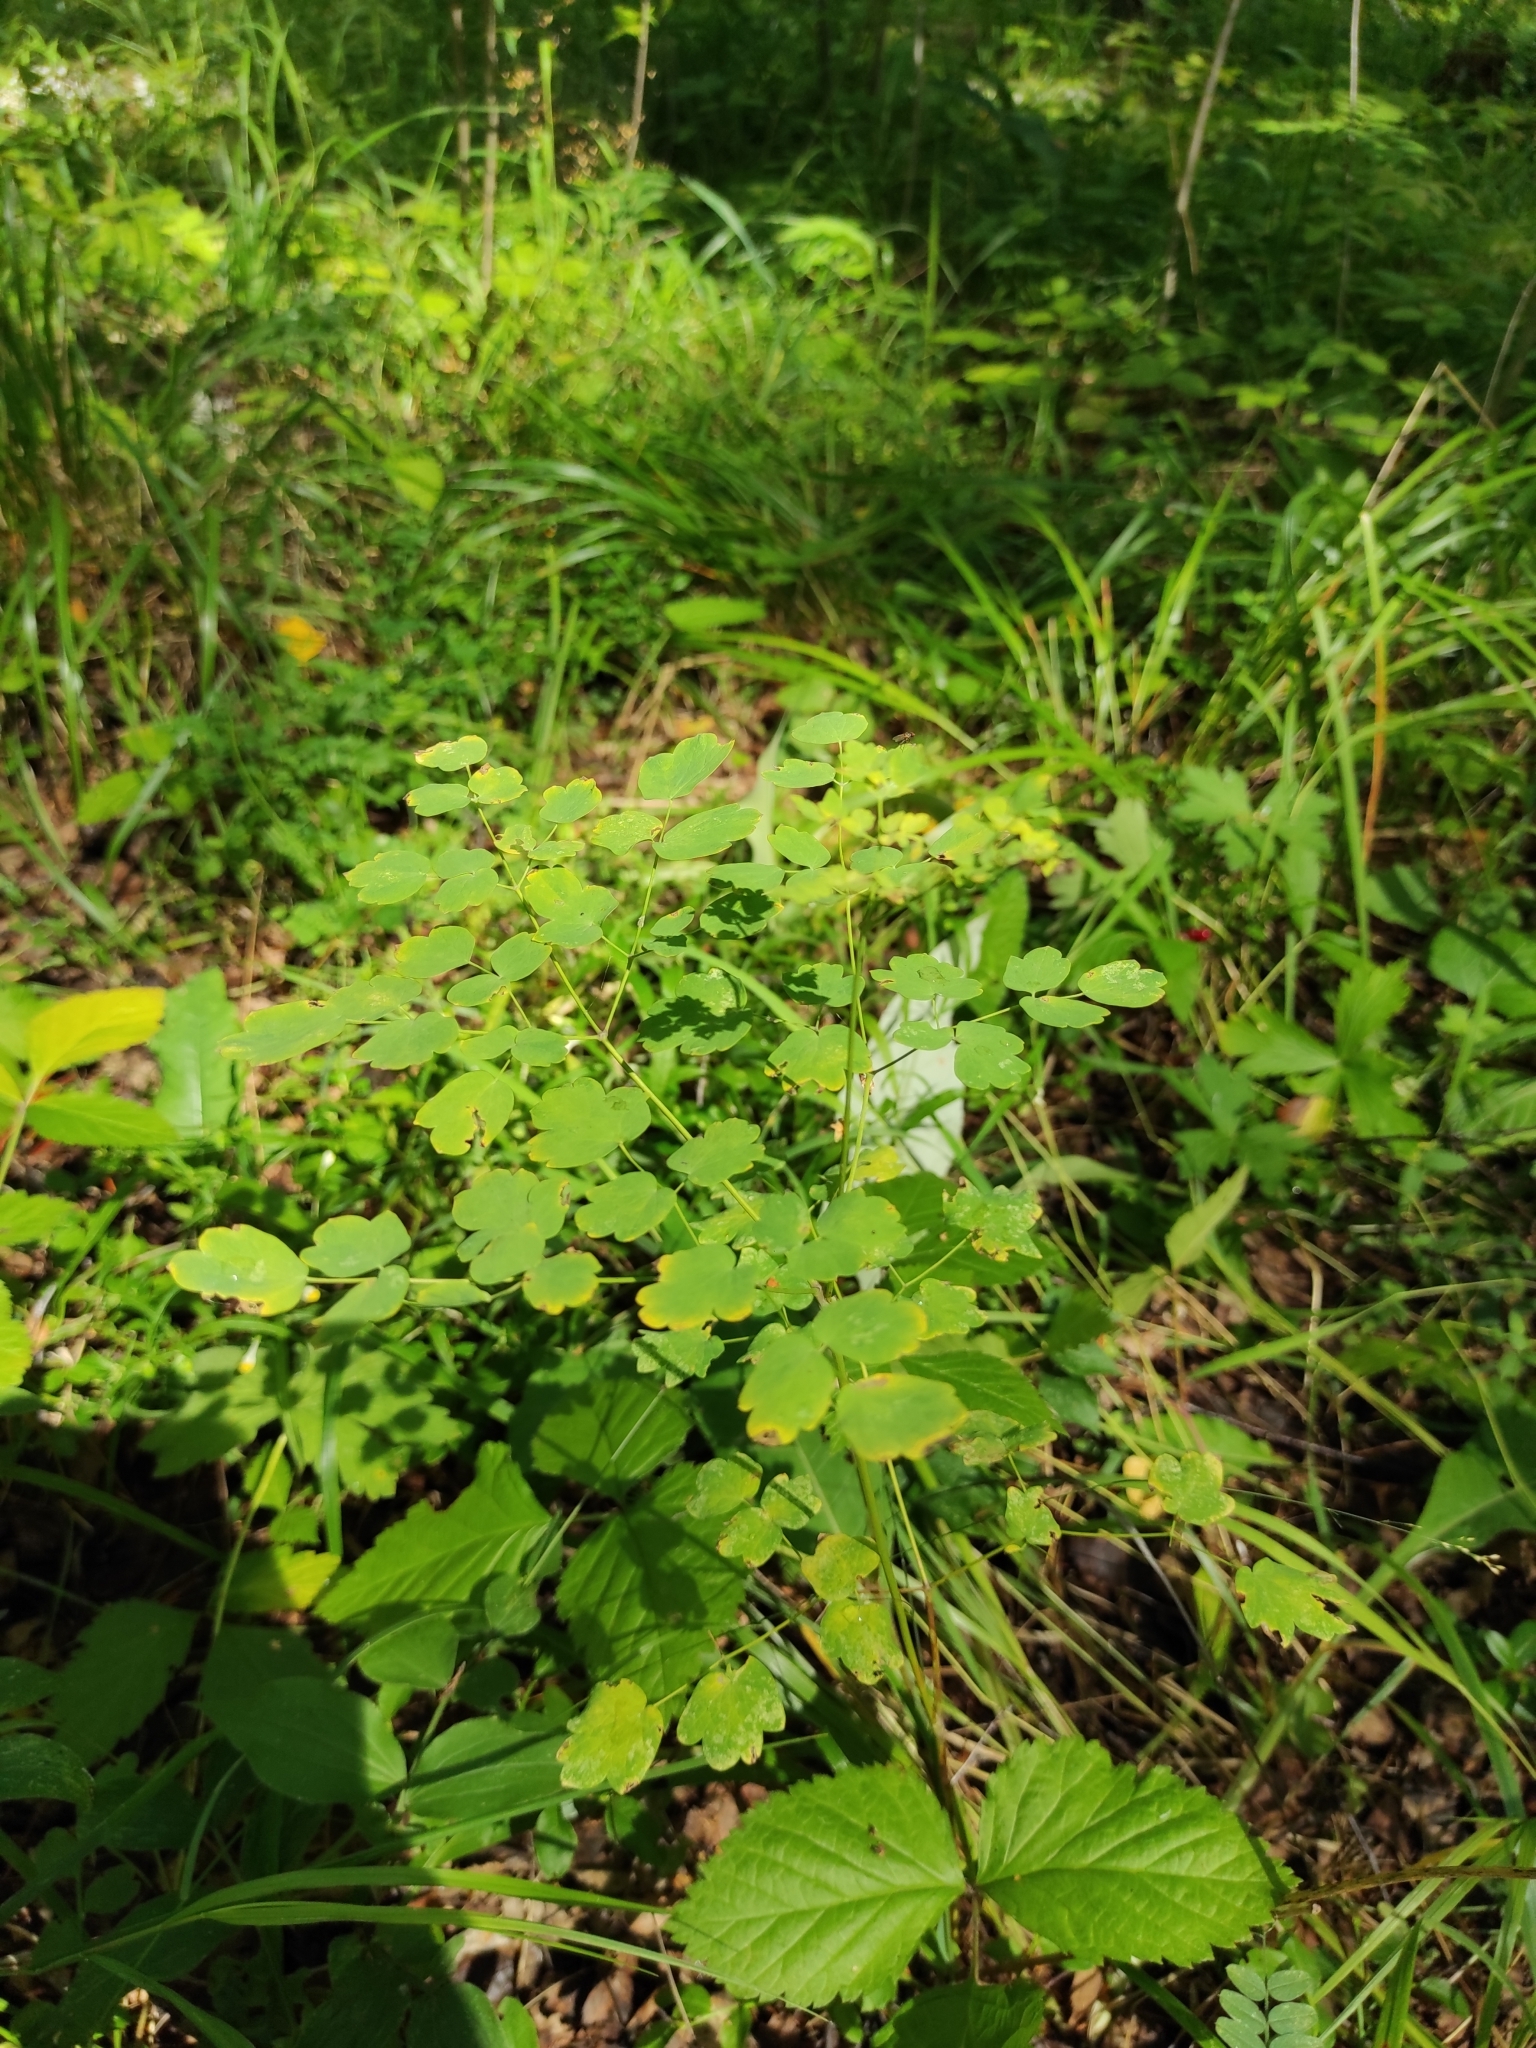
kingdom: Plantae
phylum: Tracheophyta
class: Magnoliopsida
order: Ranunculales
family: Ranunculaceae
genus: Thalictrum
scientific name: Thalictrum minus
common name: Lesser meadow-rue
